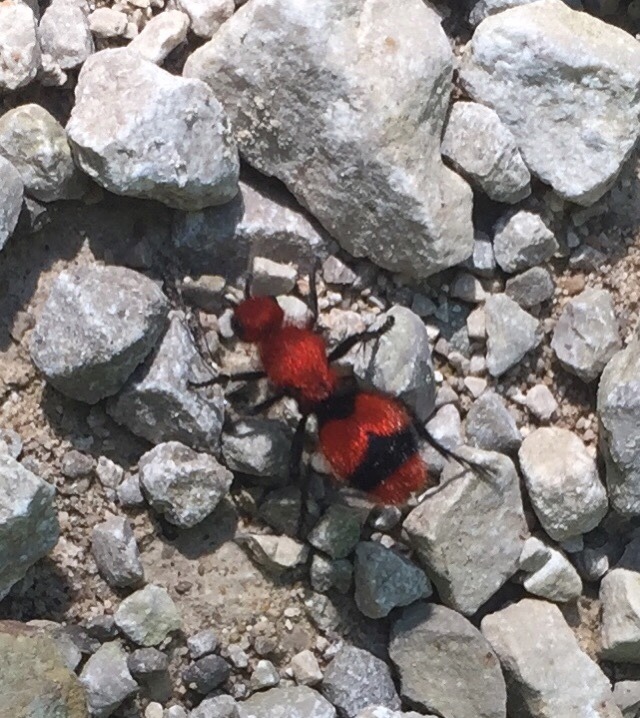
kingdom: Animalia
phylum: Arthropoda
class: Insecta
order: Hymenoptera
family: Mutillidae
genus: Dasymutilla
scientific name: Dasymutilla occidentalis
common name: Common eastern velvet ant
